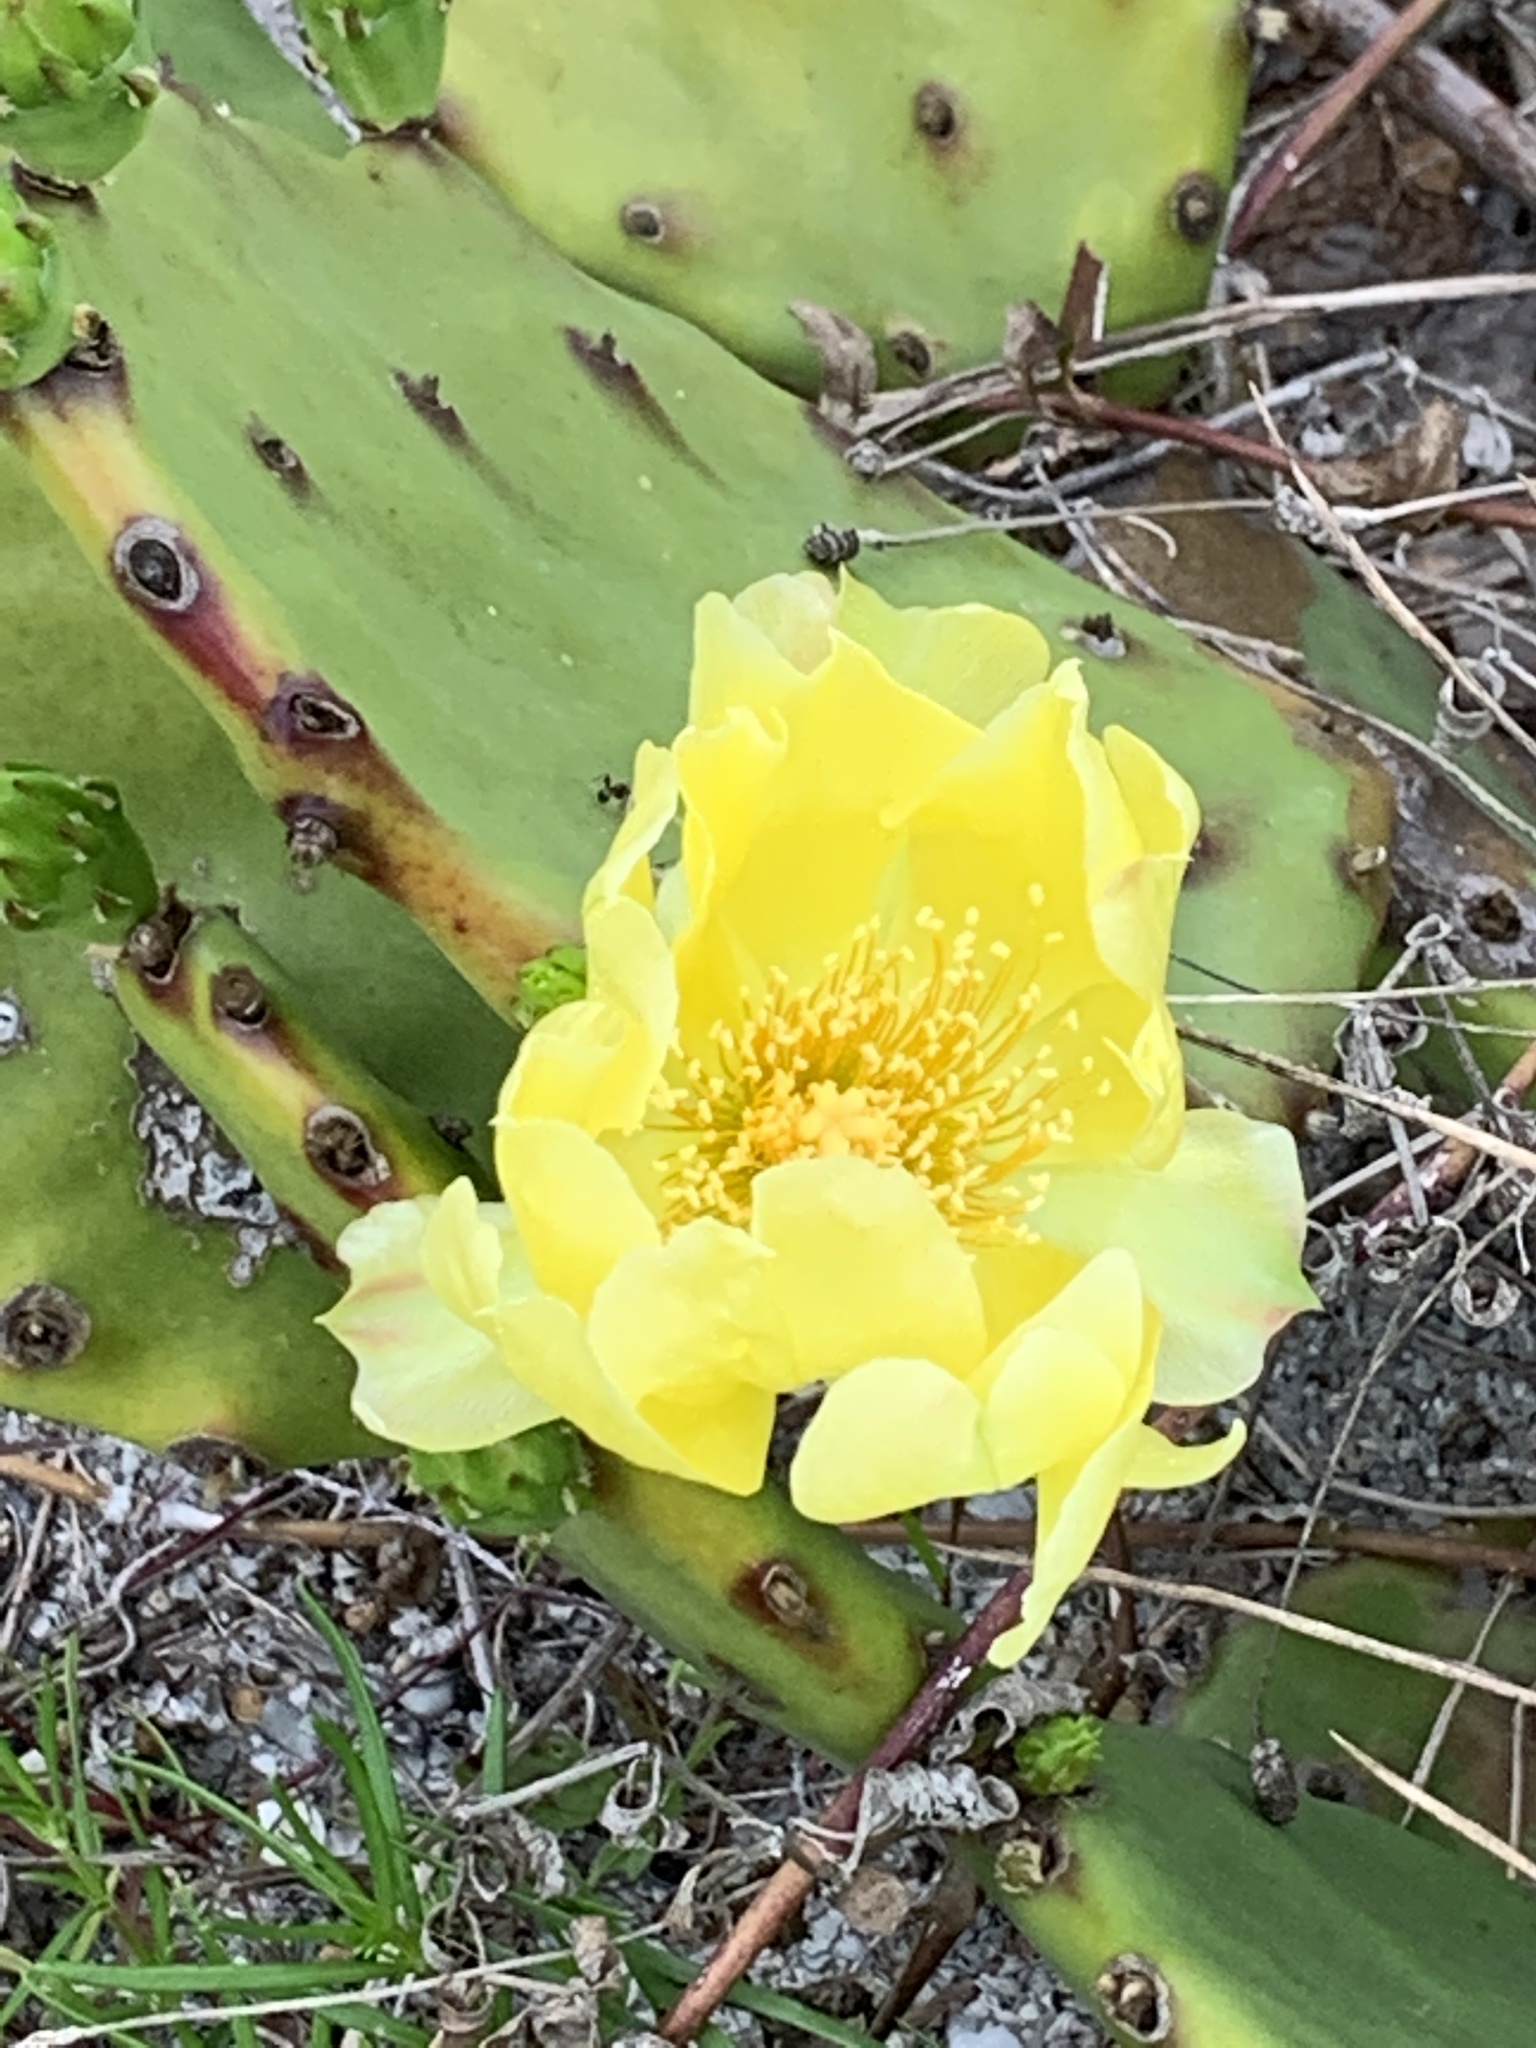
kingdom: Plantae
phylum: Tracheophyta
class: Magnoliopsida
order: Caryophyllales
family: Cactaceae
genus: Opuntia
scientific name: Opuntia mesacantha
